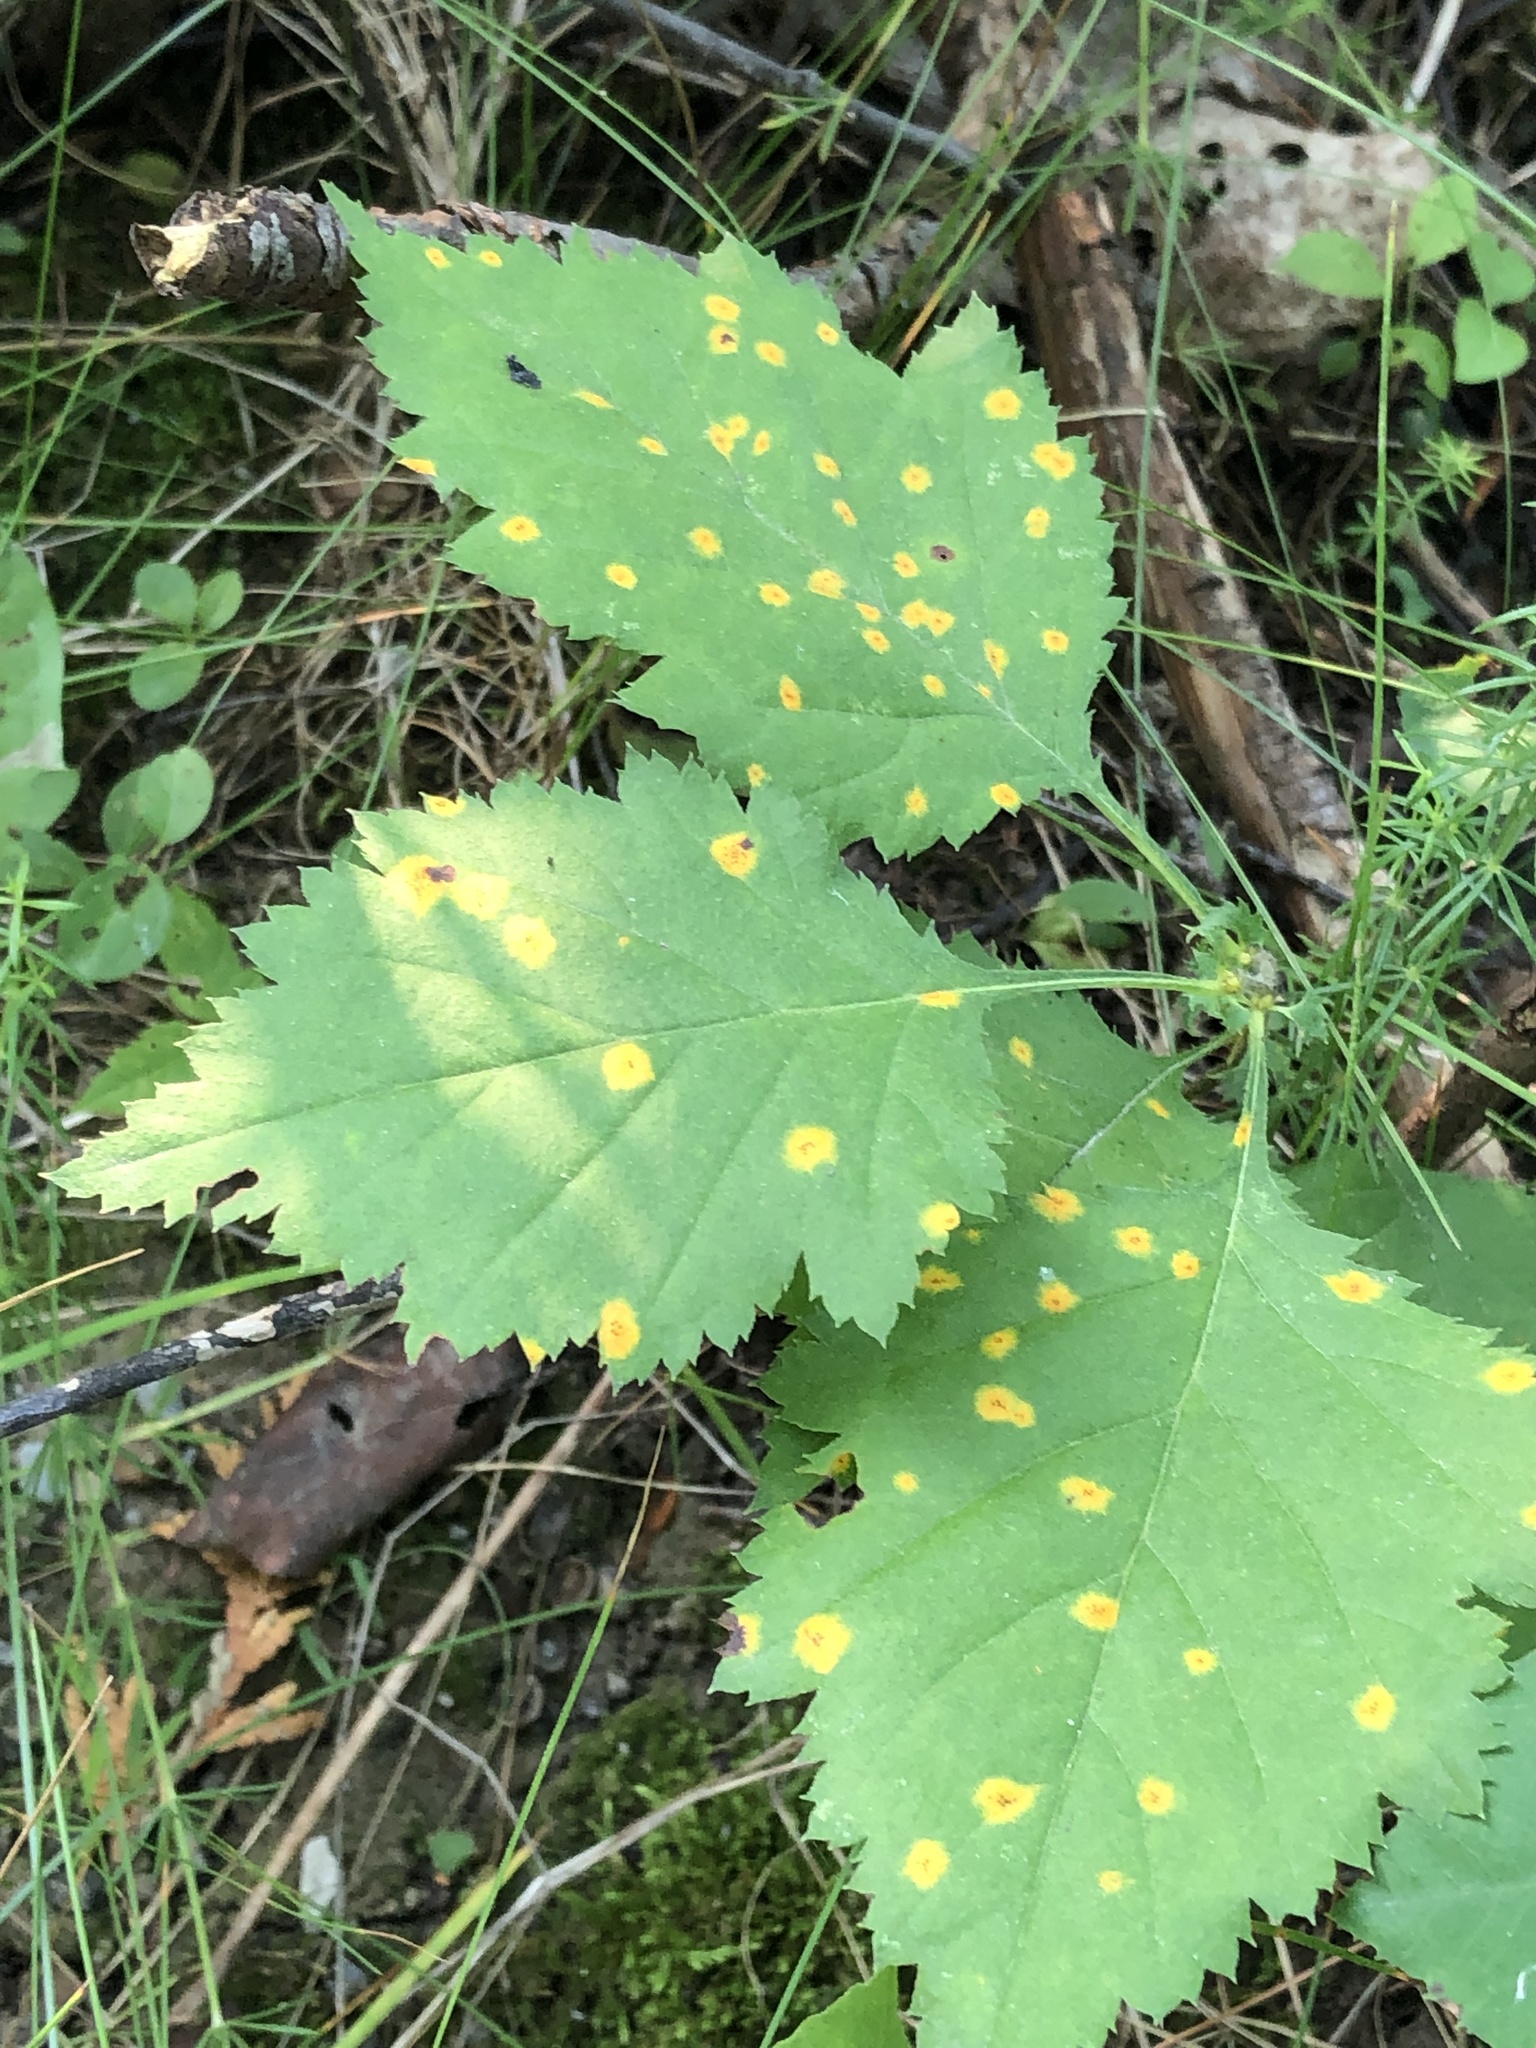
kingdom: Fungi
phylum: Basidiomycota
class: Pucciniomycetes
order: Pucciniales
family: Gymnosporangiaceae
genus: Gymnosporangium
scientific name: Gymnosporangium globosum
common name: Juniper-hawthorn rust
